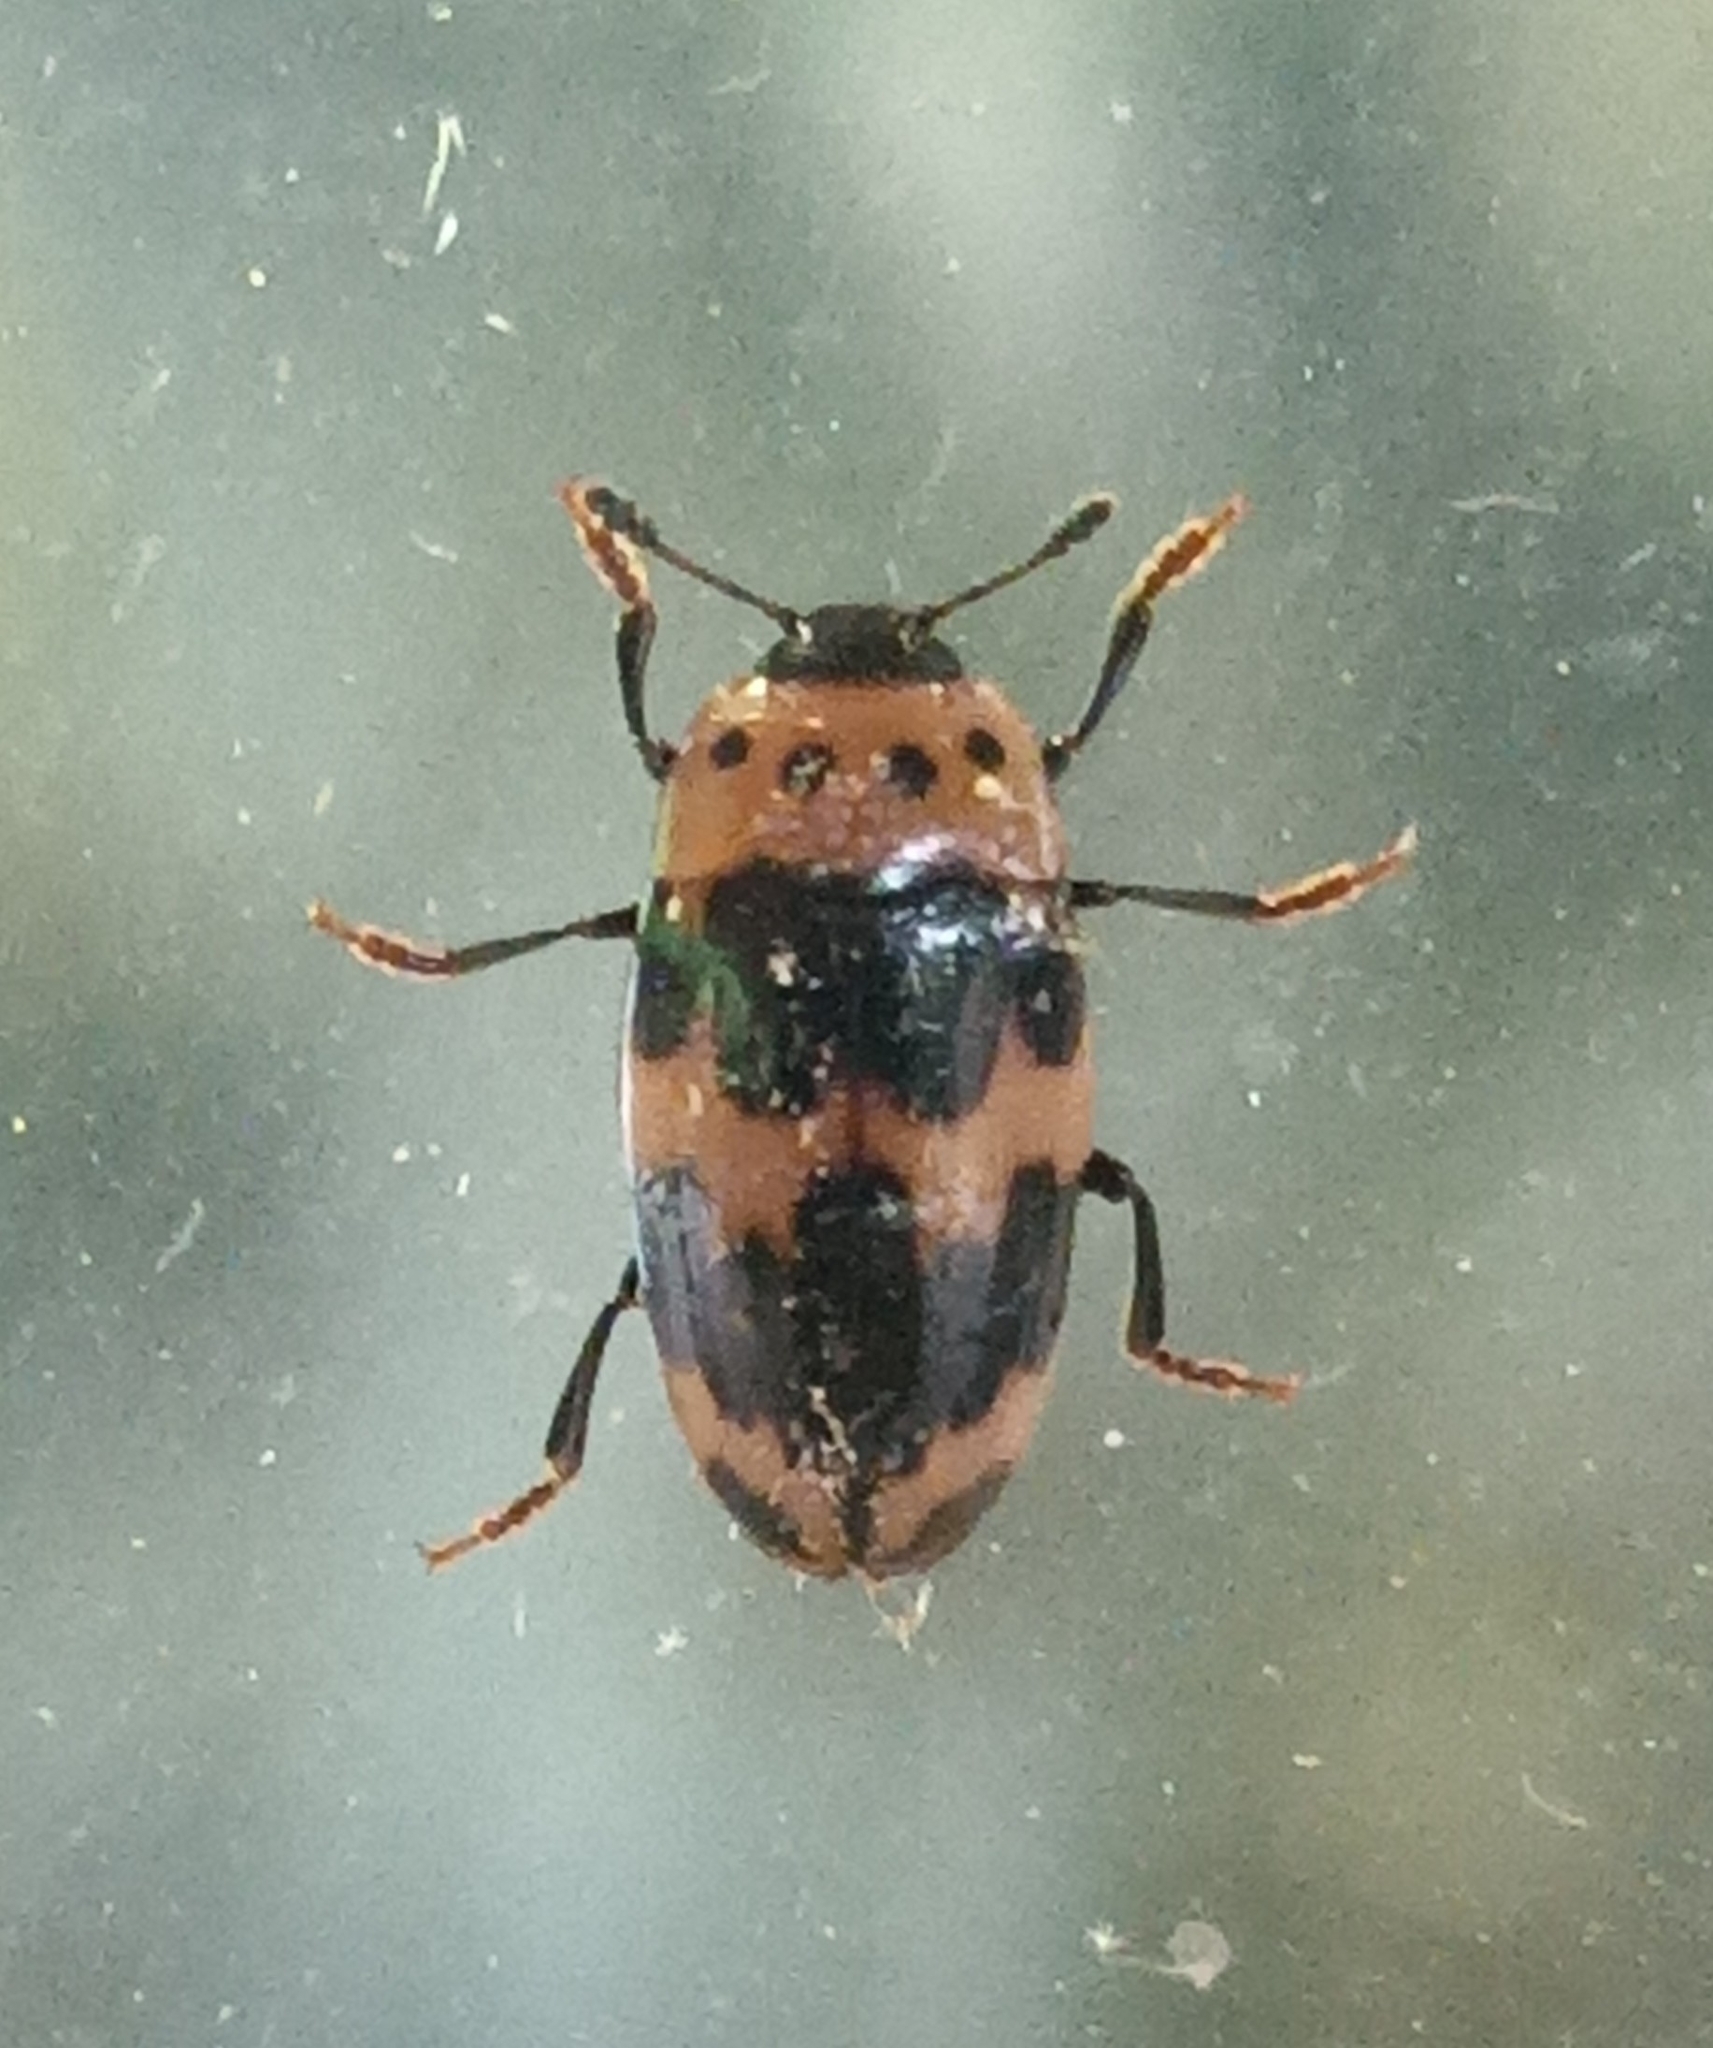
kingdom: Animalia
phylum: Arthropoda
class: Insecta
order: Coleoptera
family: Erotylidae
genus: Ischyrus
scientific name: Ischyrus quadripunctatus
